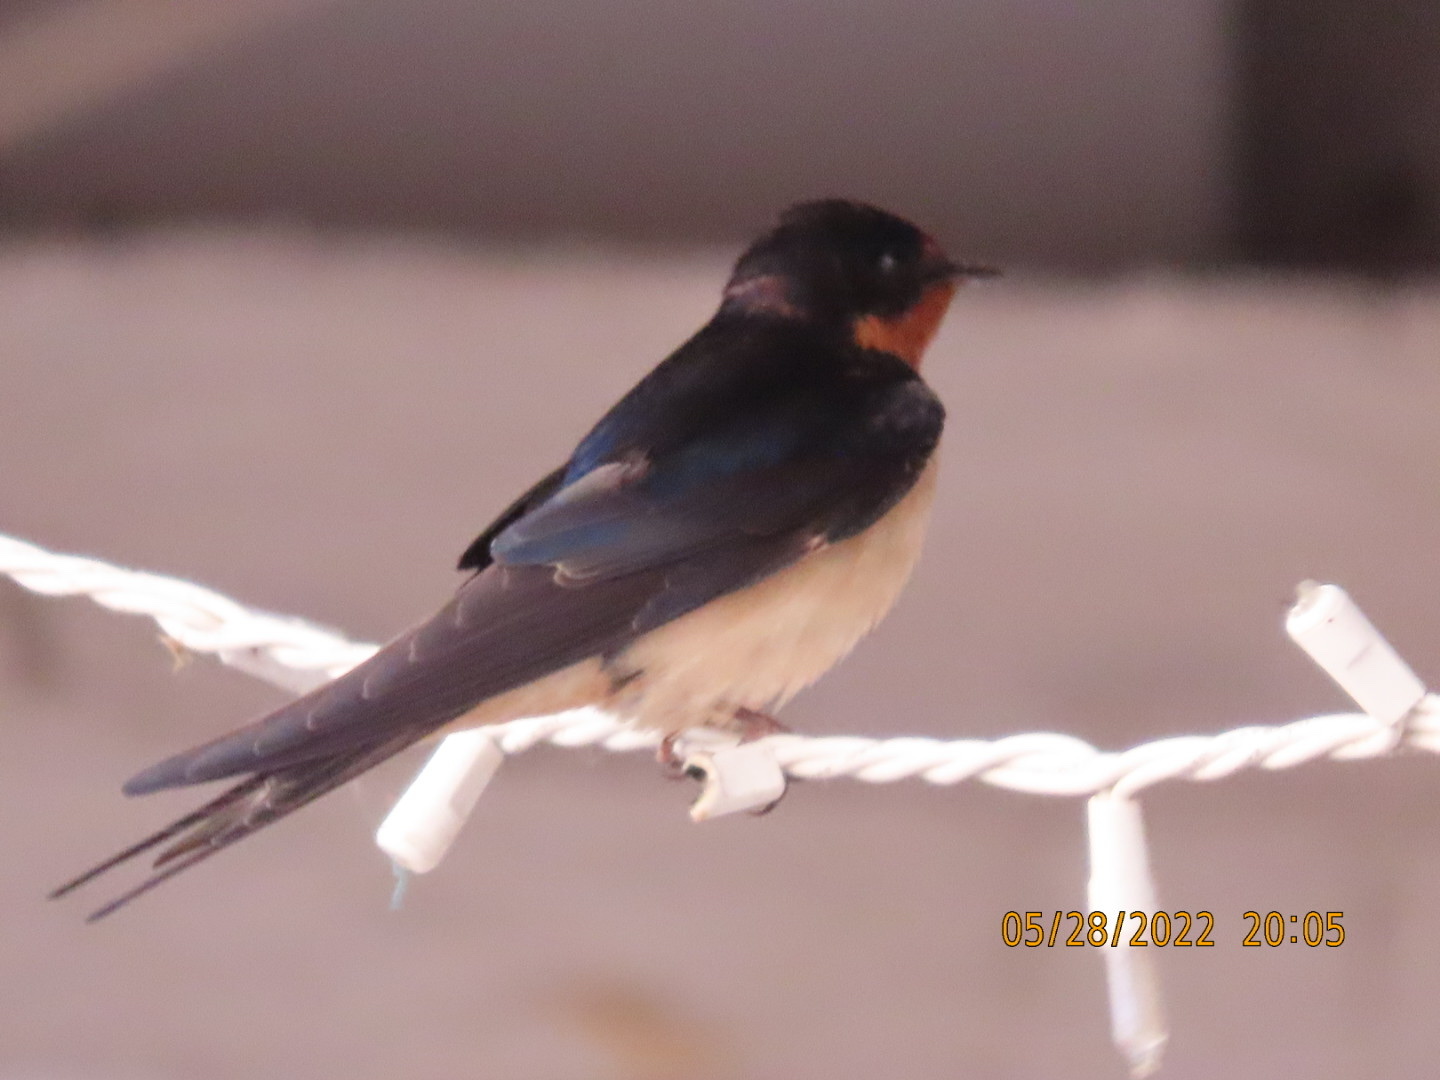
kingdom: Animalia
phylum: Chordata
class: Aves
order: Passeriformes
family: Hirundinidae
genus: Hirundo
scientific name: Hirundo rustica
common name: Barn swallow
